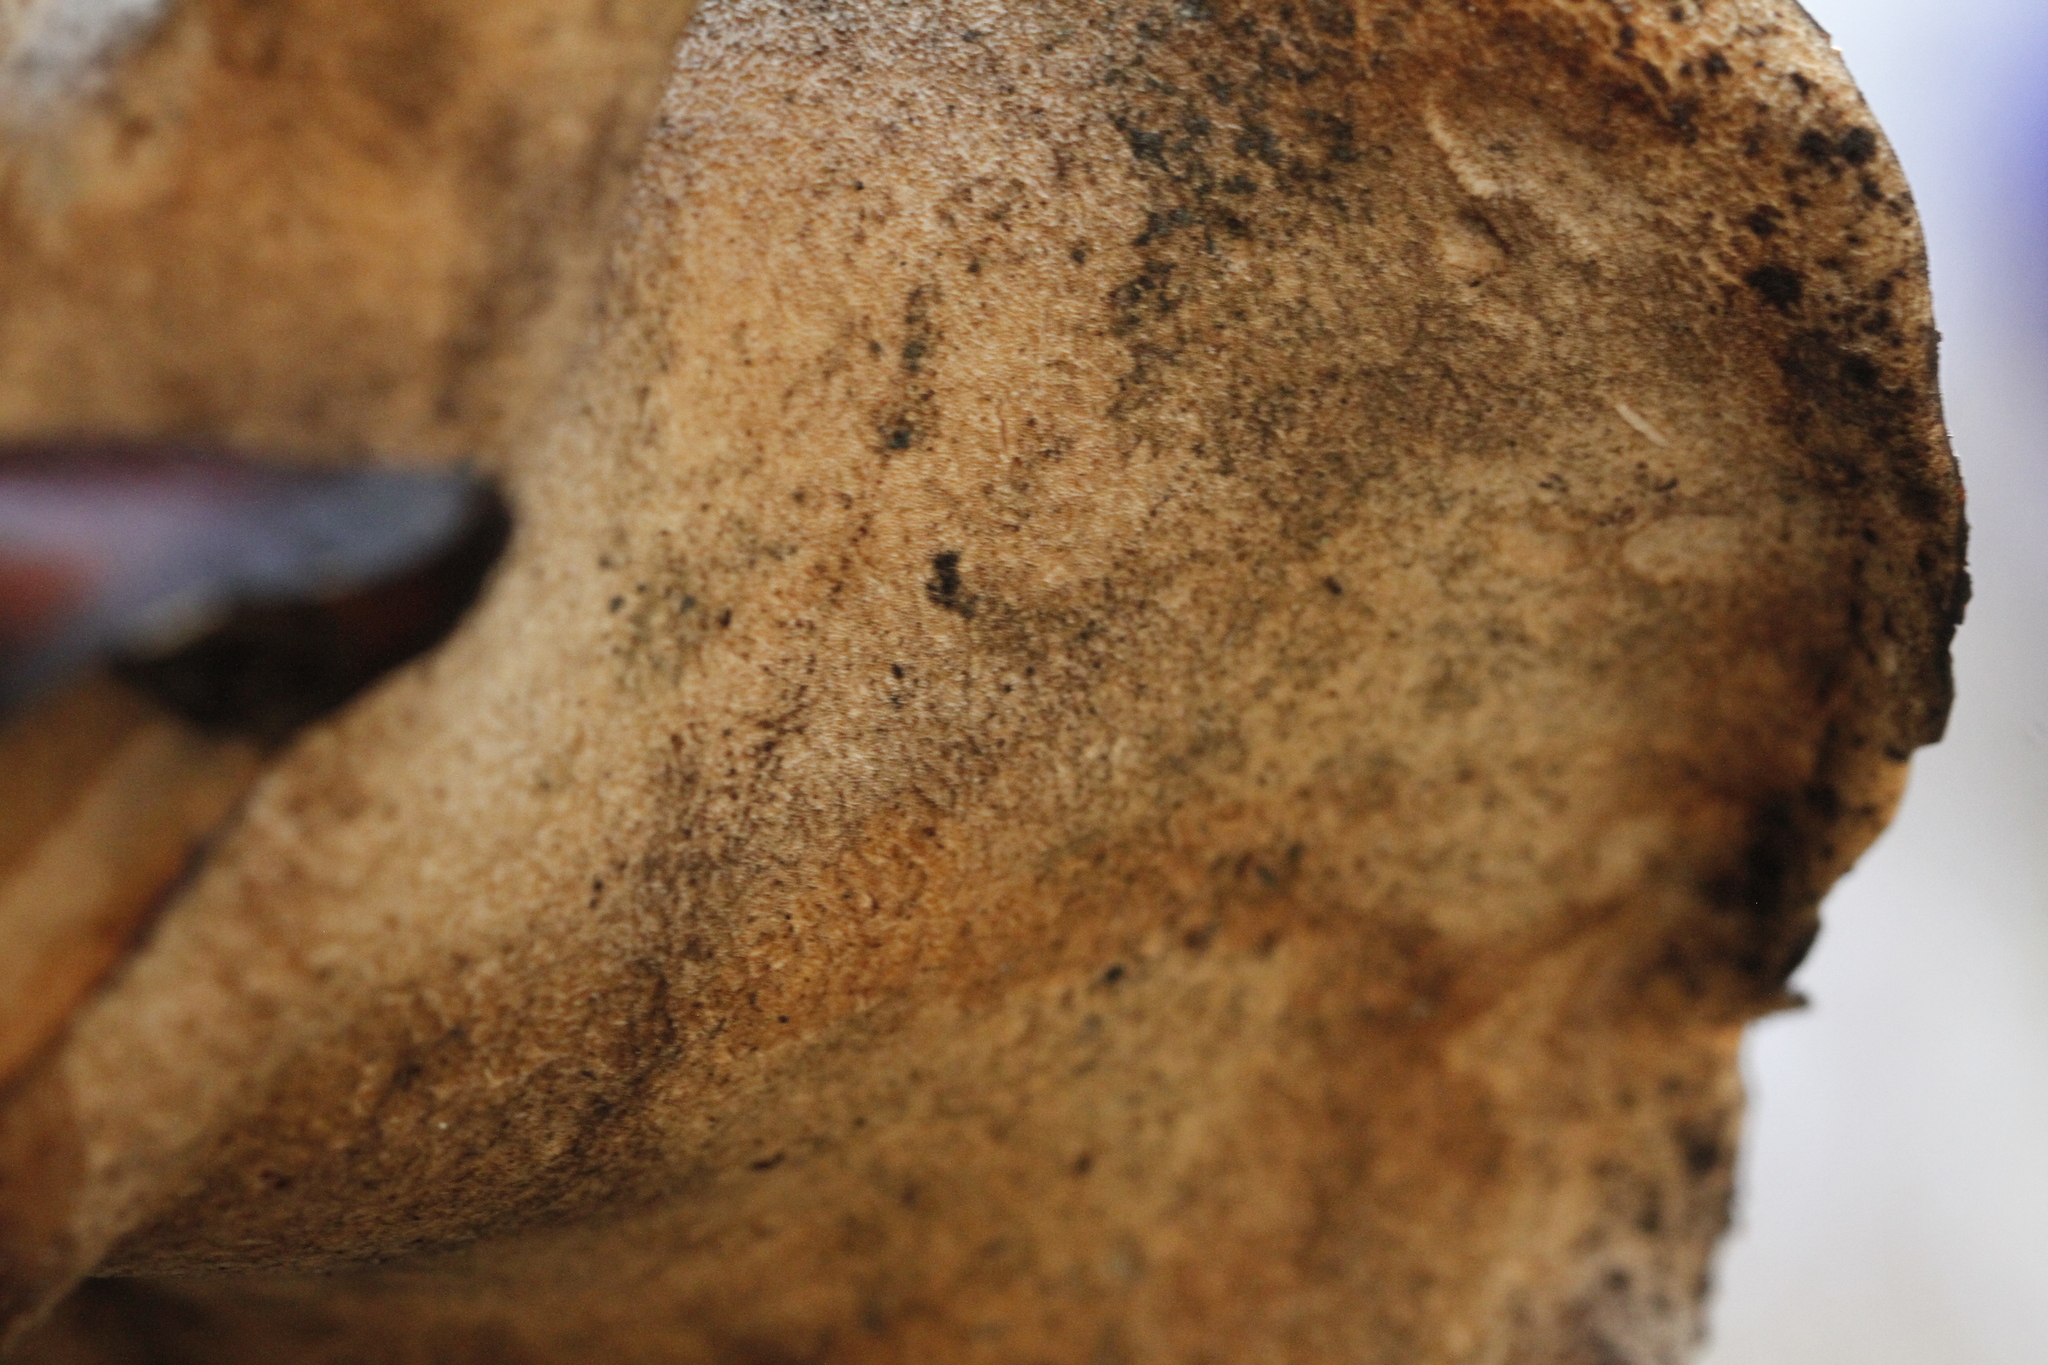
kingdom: Fungi
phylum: Basidiomycota
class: Agaricomycetes
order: Polyporales
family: Polyporaceae
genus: Picipes
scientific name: Picipes badius
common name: Bay polypore
